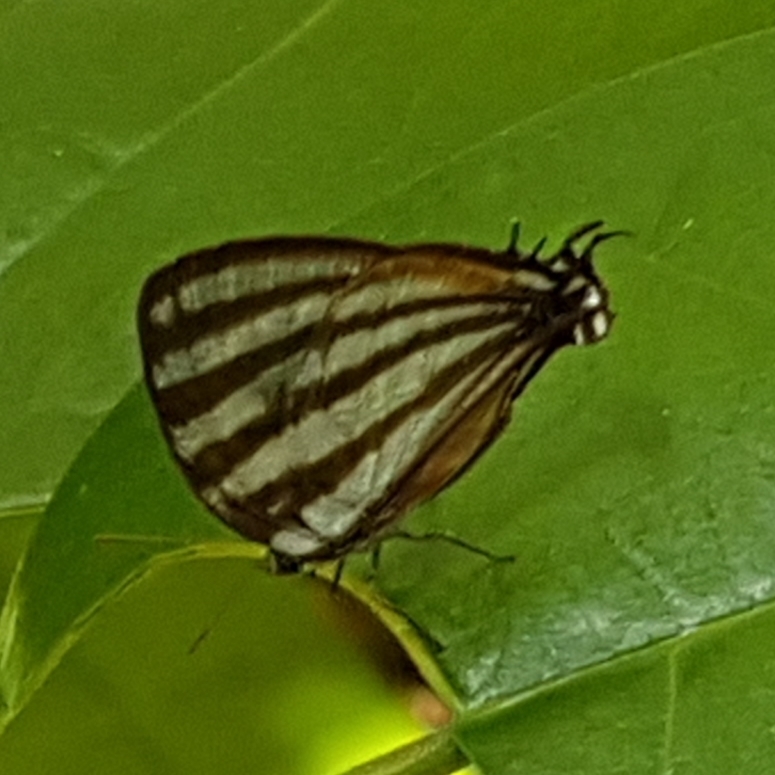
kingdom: Animalia
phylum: Arthropoda
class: Insecta
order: Lepidoptera
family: Lycaenidae
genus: Arawacus
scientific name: Arawacus lincoides
